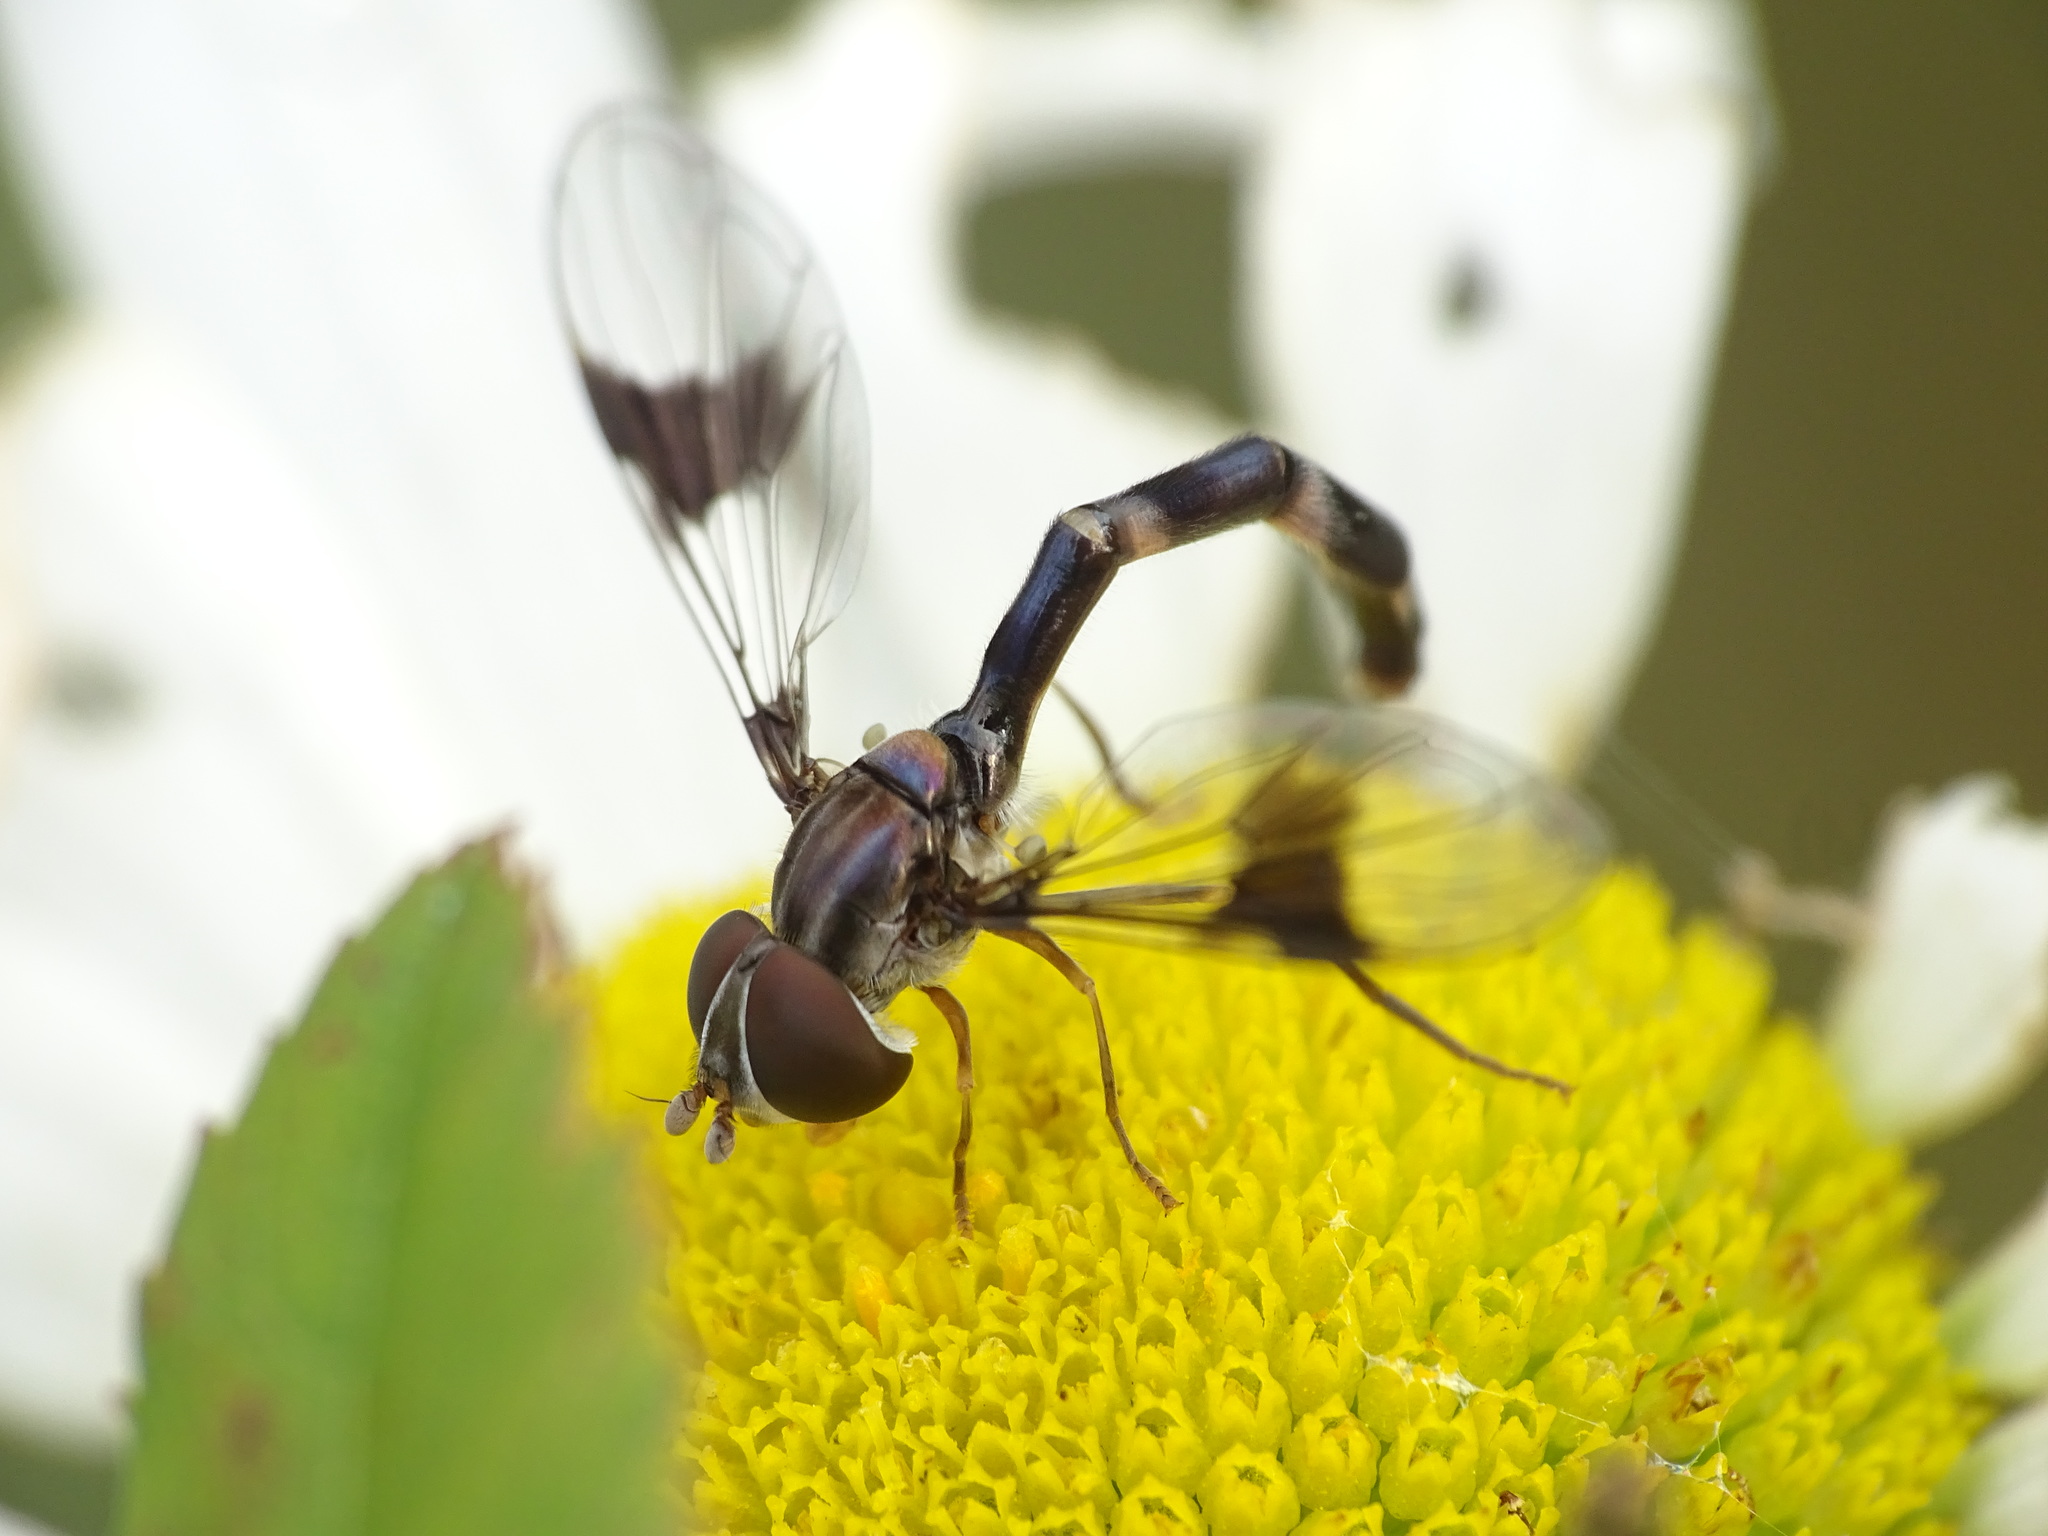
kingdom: Animalia
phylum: Arthropoda
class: Insecta
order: Diptera
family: Syrphidae
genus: Hypocritanus
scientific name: Hypocritanus fascipennis
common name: Eastern band-winged hover fly
